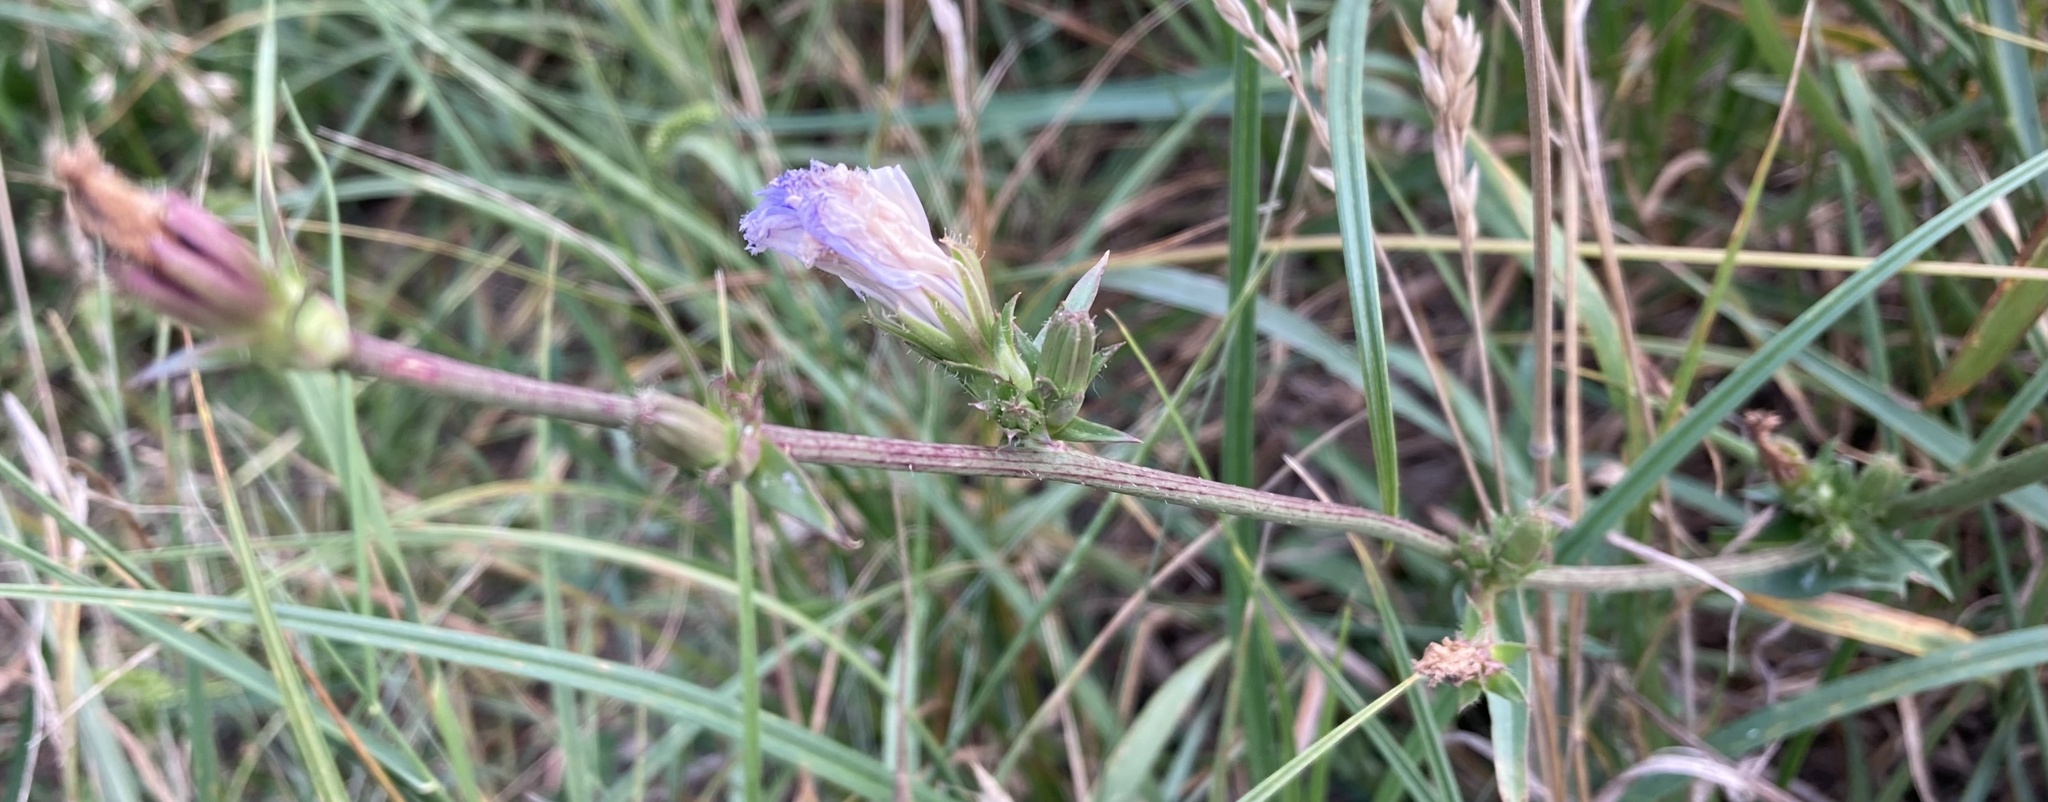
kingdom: Plantae
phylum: Tracheophyta
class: Magnoliopsida
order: Asterales
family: Asteraceae
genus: Cichorium
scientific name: Cichorium intybus
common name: Chicory
